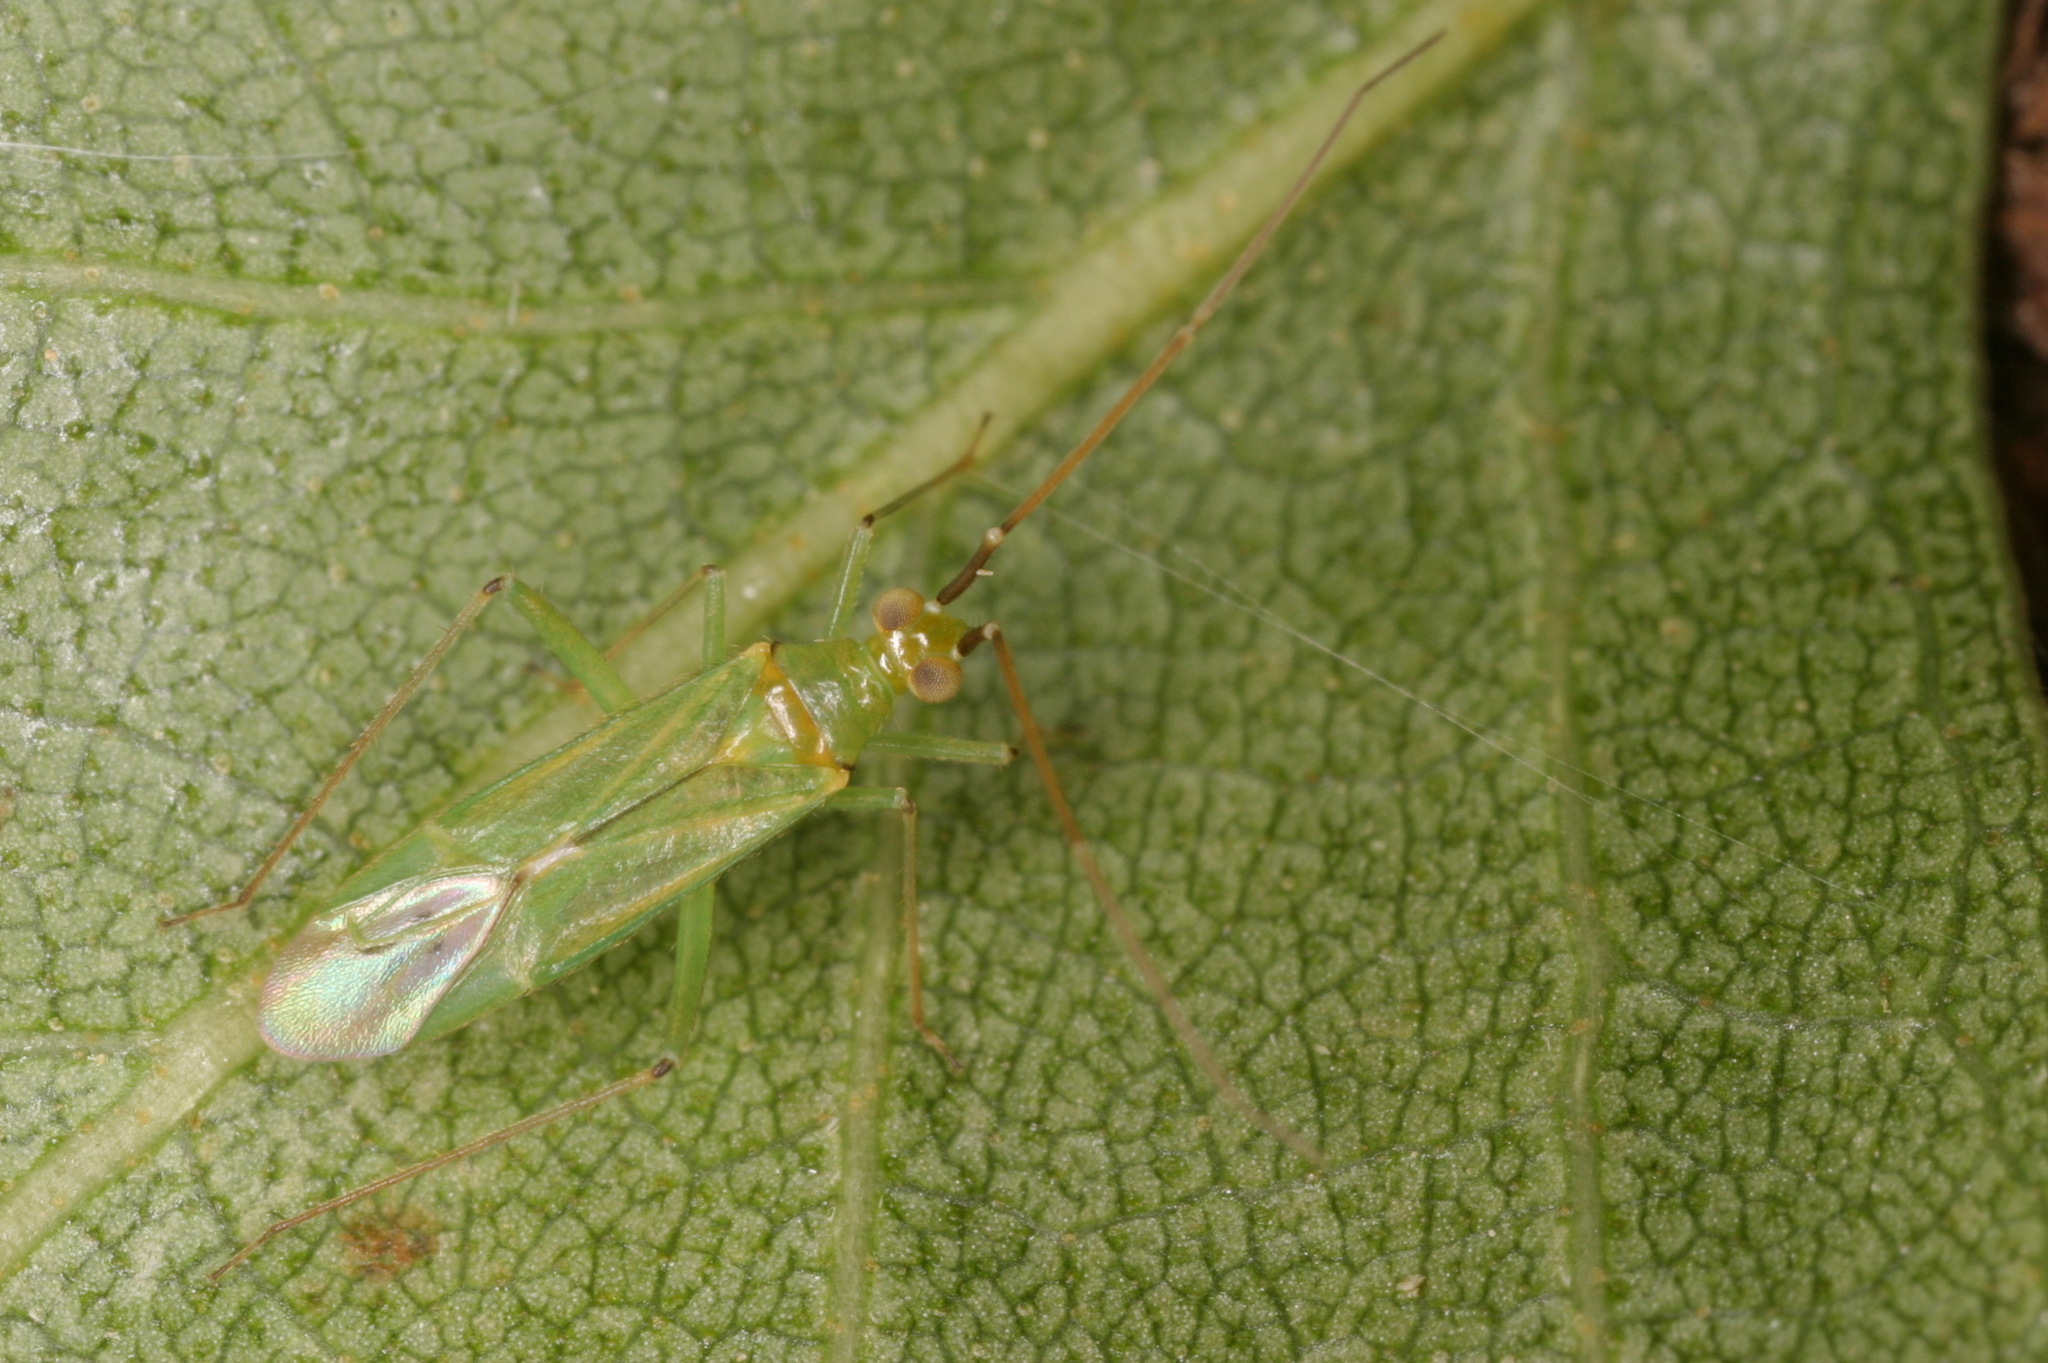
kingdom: Animalia
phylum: Arthropoda
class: Insecta
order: Hemiptera
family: Miridae
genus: Blepharidopterus
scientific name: Blepharidopterus angulatus
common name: Plant bug
